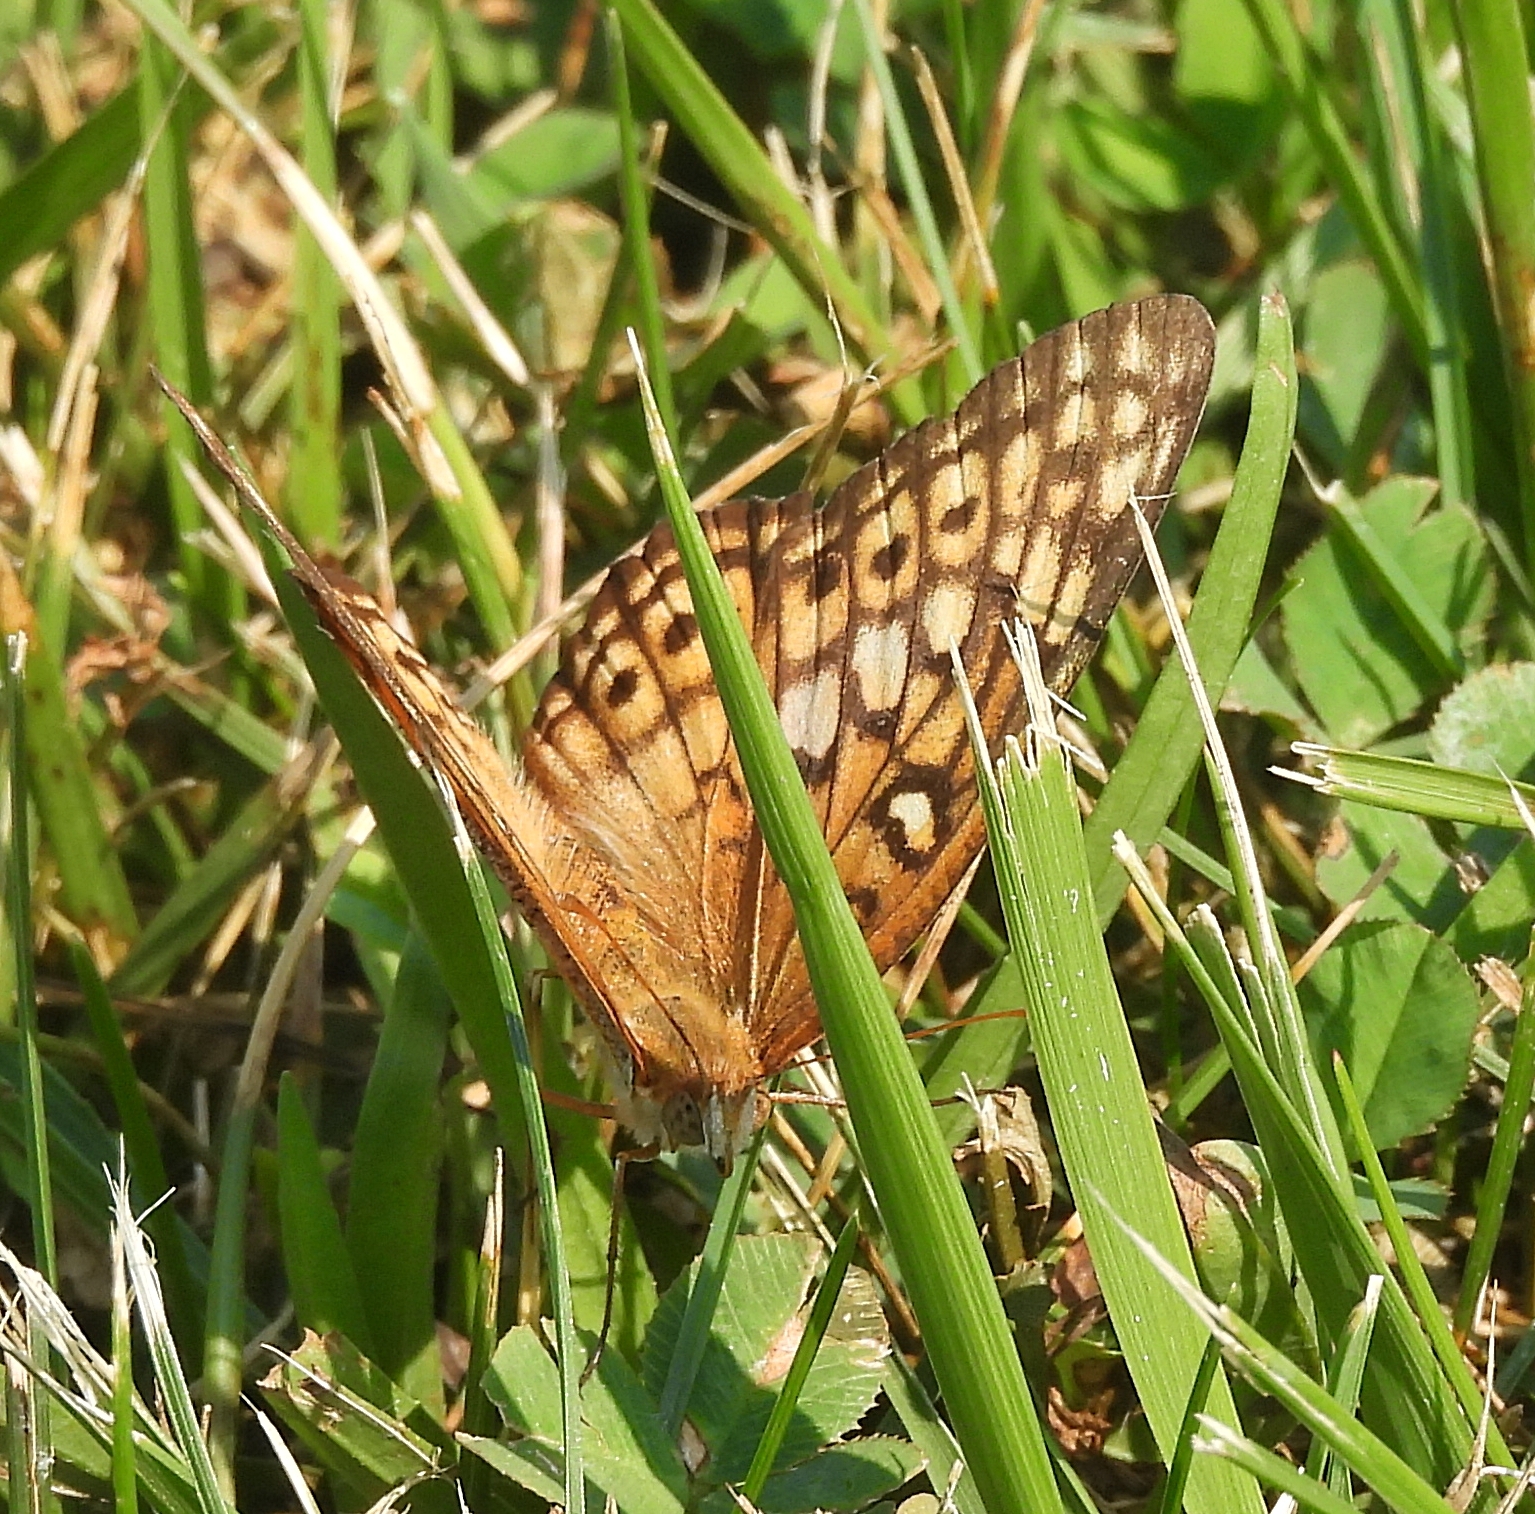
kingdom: Animalia
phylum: Arthropoda
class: Insecta
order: Lepidoptera
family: Nymphalidae
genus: Euptoieta
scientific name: Euptoieta claudia
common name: Variegated fritillary
